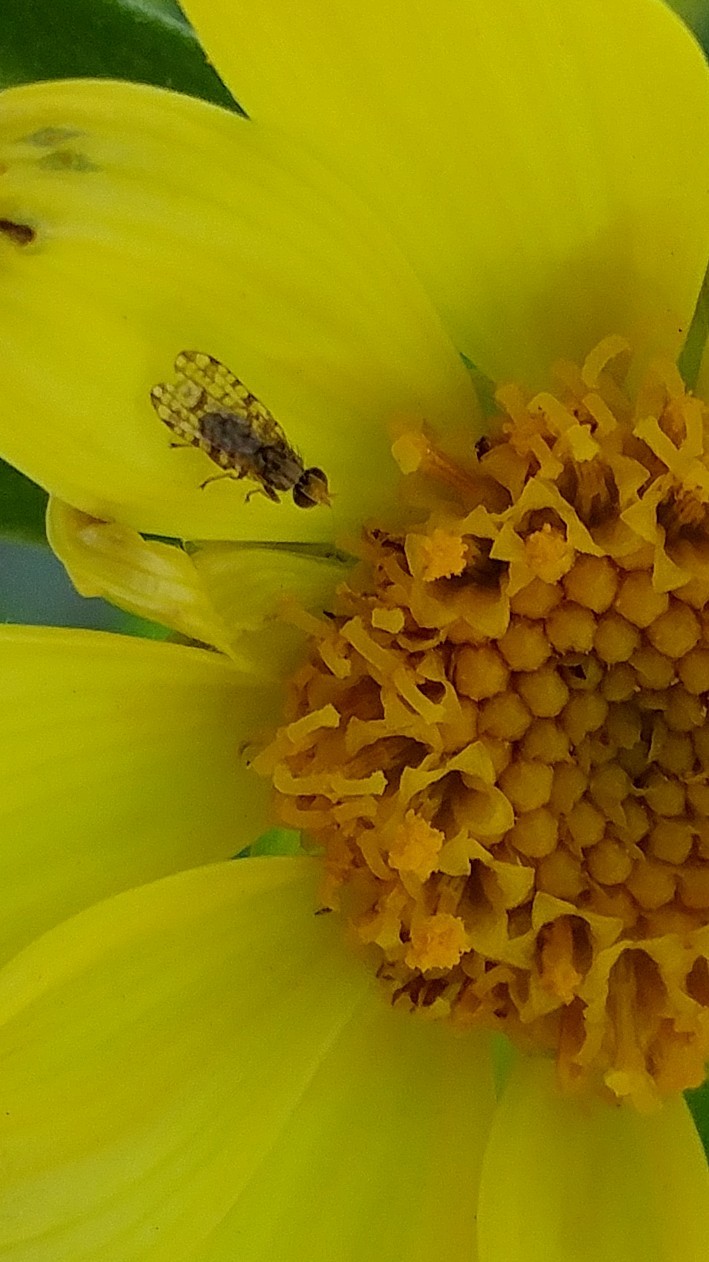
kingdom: Animalia
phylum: Arthropoda
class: Insecta
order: Diptera
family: Tephritidae
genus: Dioxyna
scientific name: Dioxyna picciola
